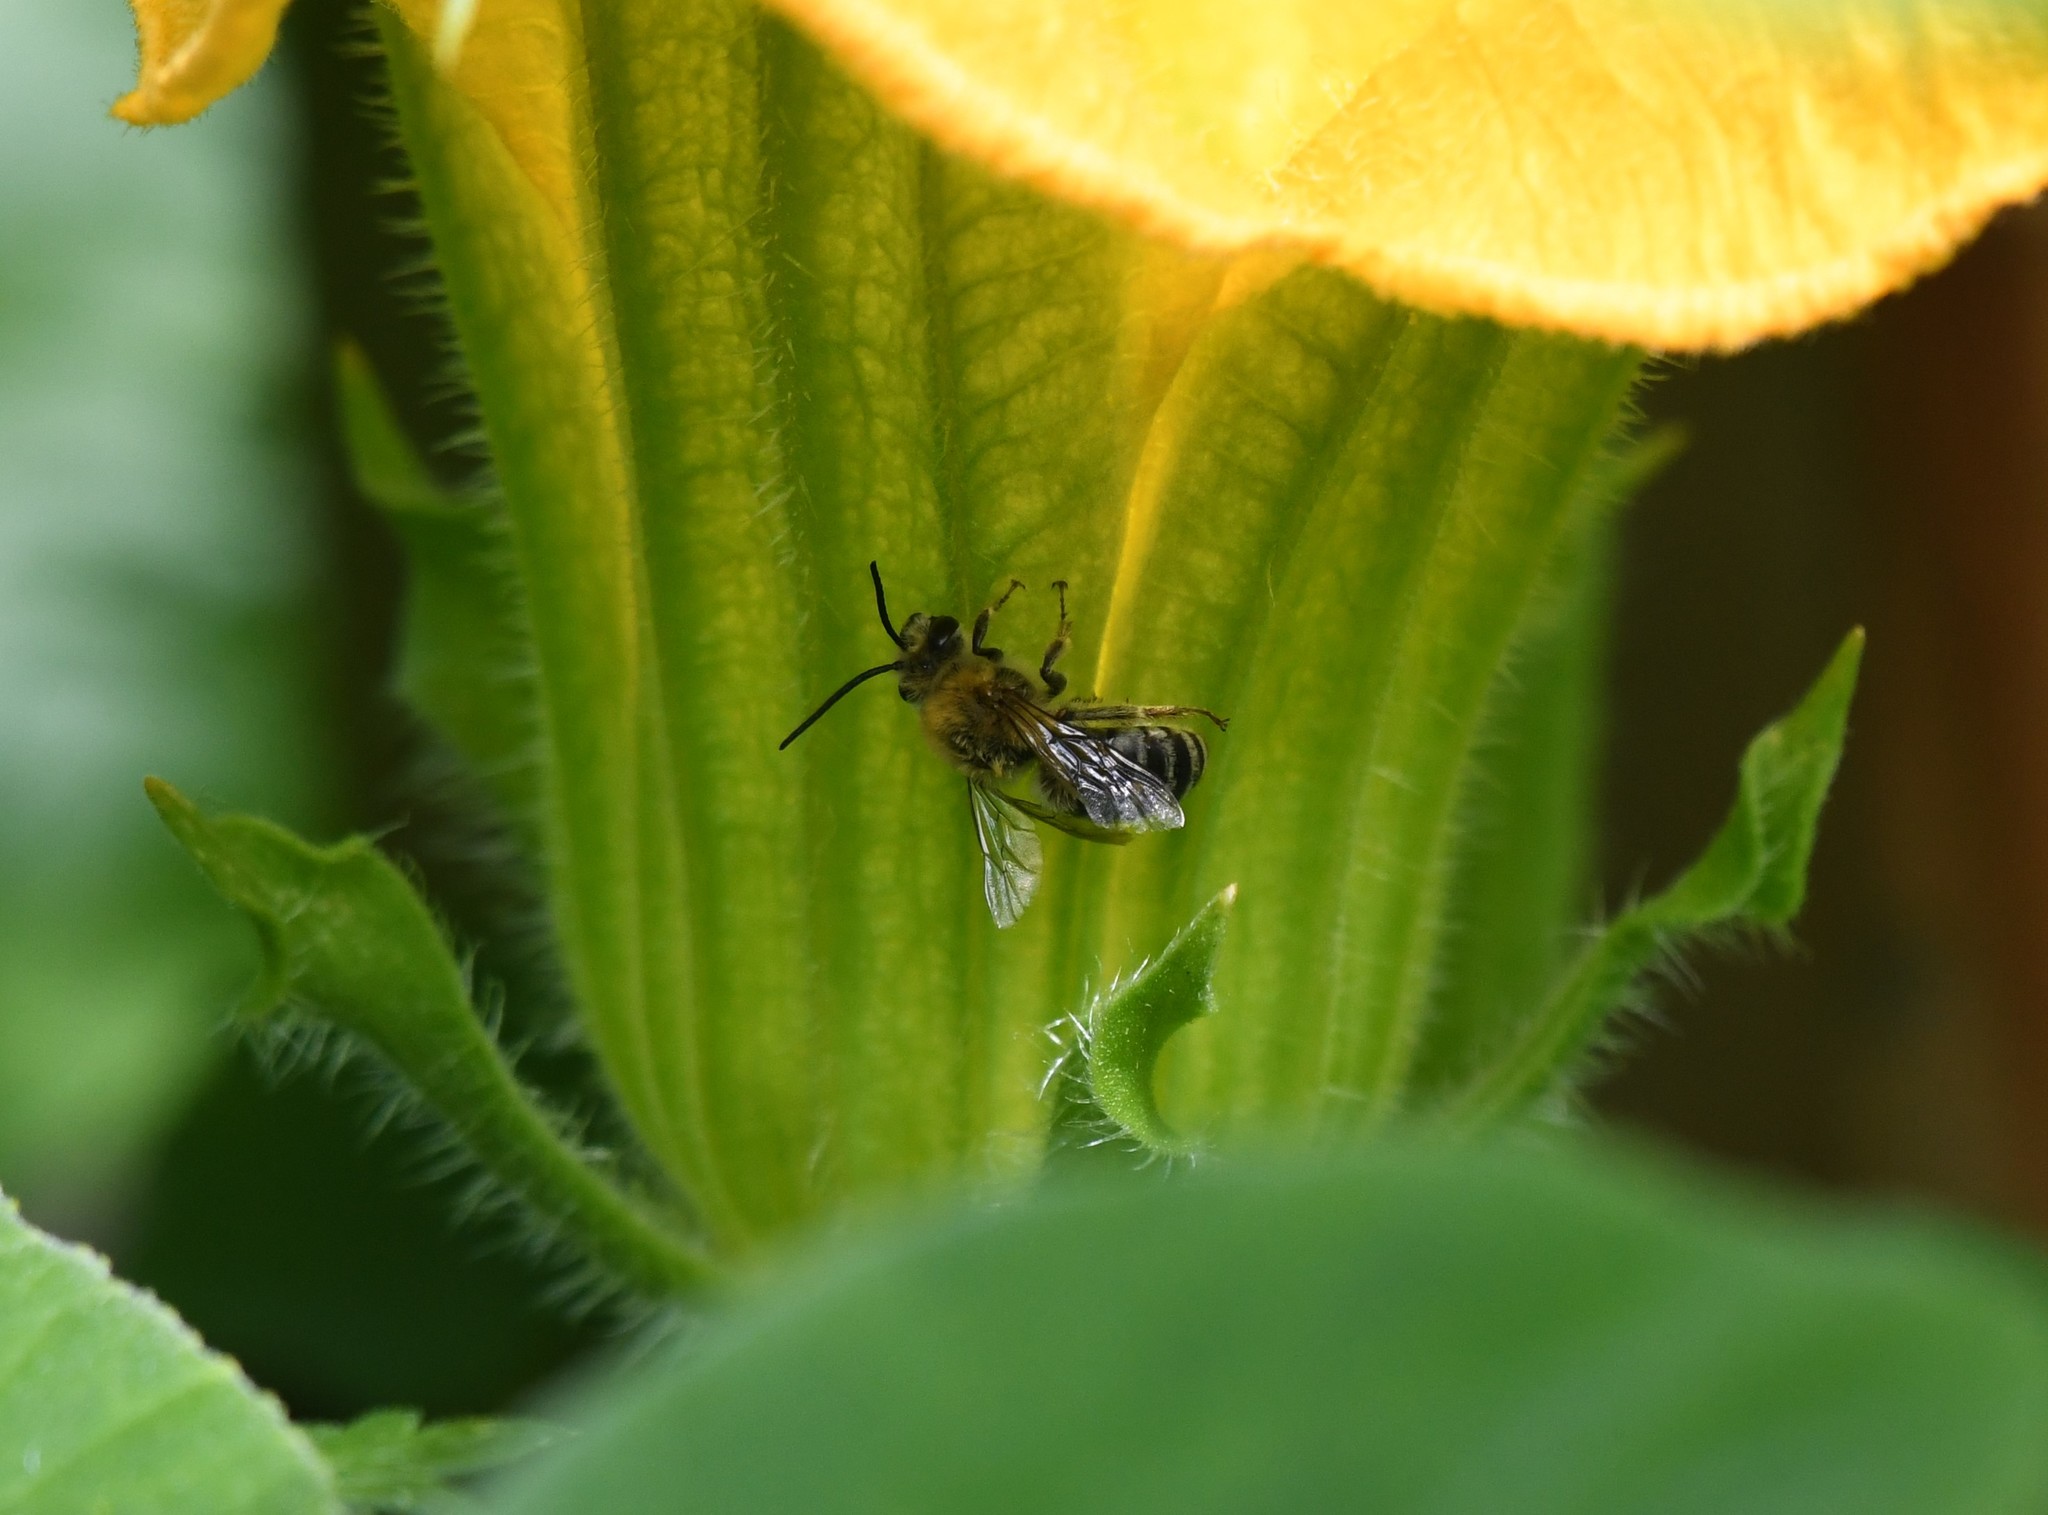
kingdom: Animalia
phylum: Arthropoda
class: Insecta
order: Hymenoptera
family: Apidae
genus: Peponapis
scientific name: Peponapis pruinosa
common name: Pruinose squash bee
